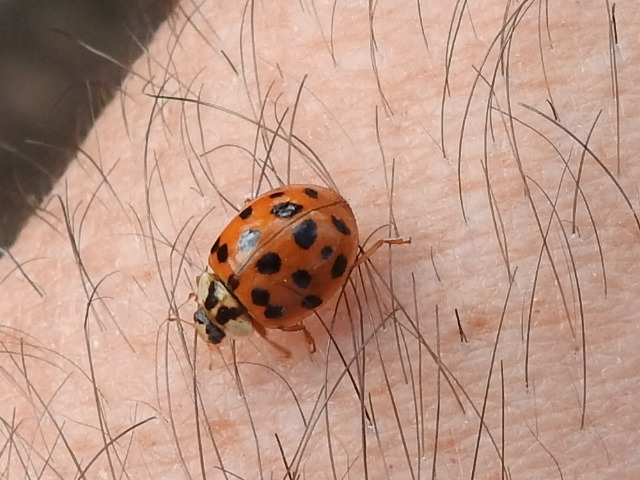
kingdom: Animalia
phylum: Arthropoda
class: Insecta
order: Coleoptera
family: Coccinellidae
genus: Harmonia
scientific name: Harmonia axyridis
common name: Harlequin ladybird
